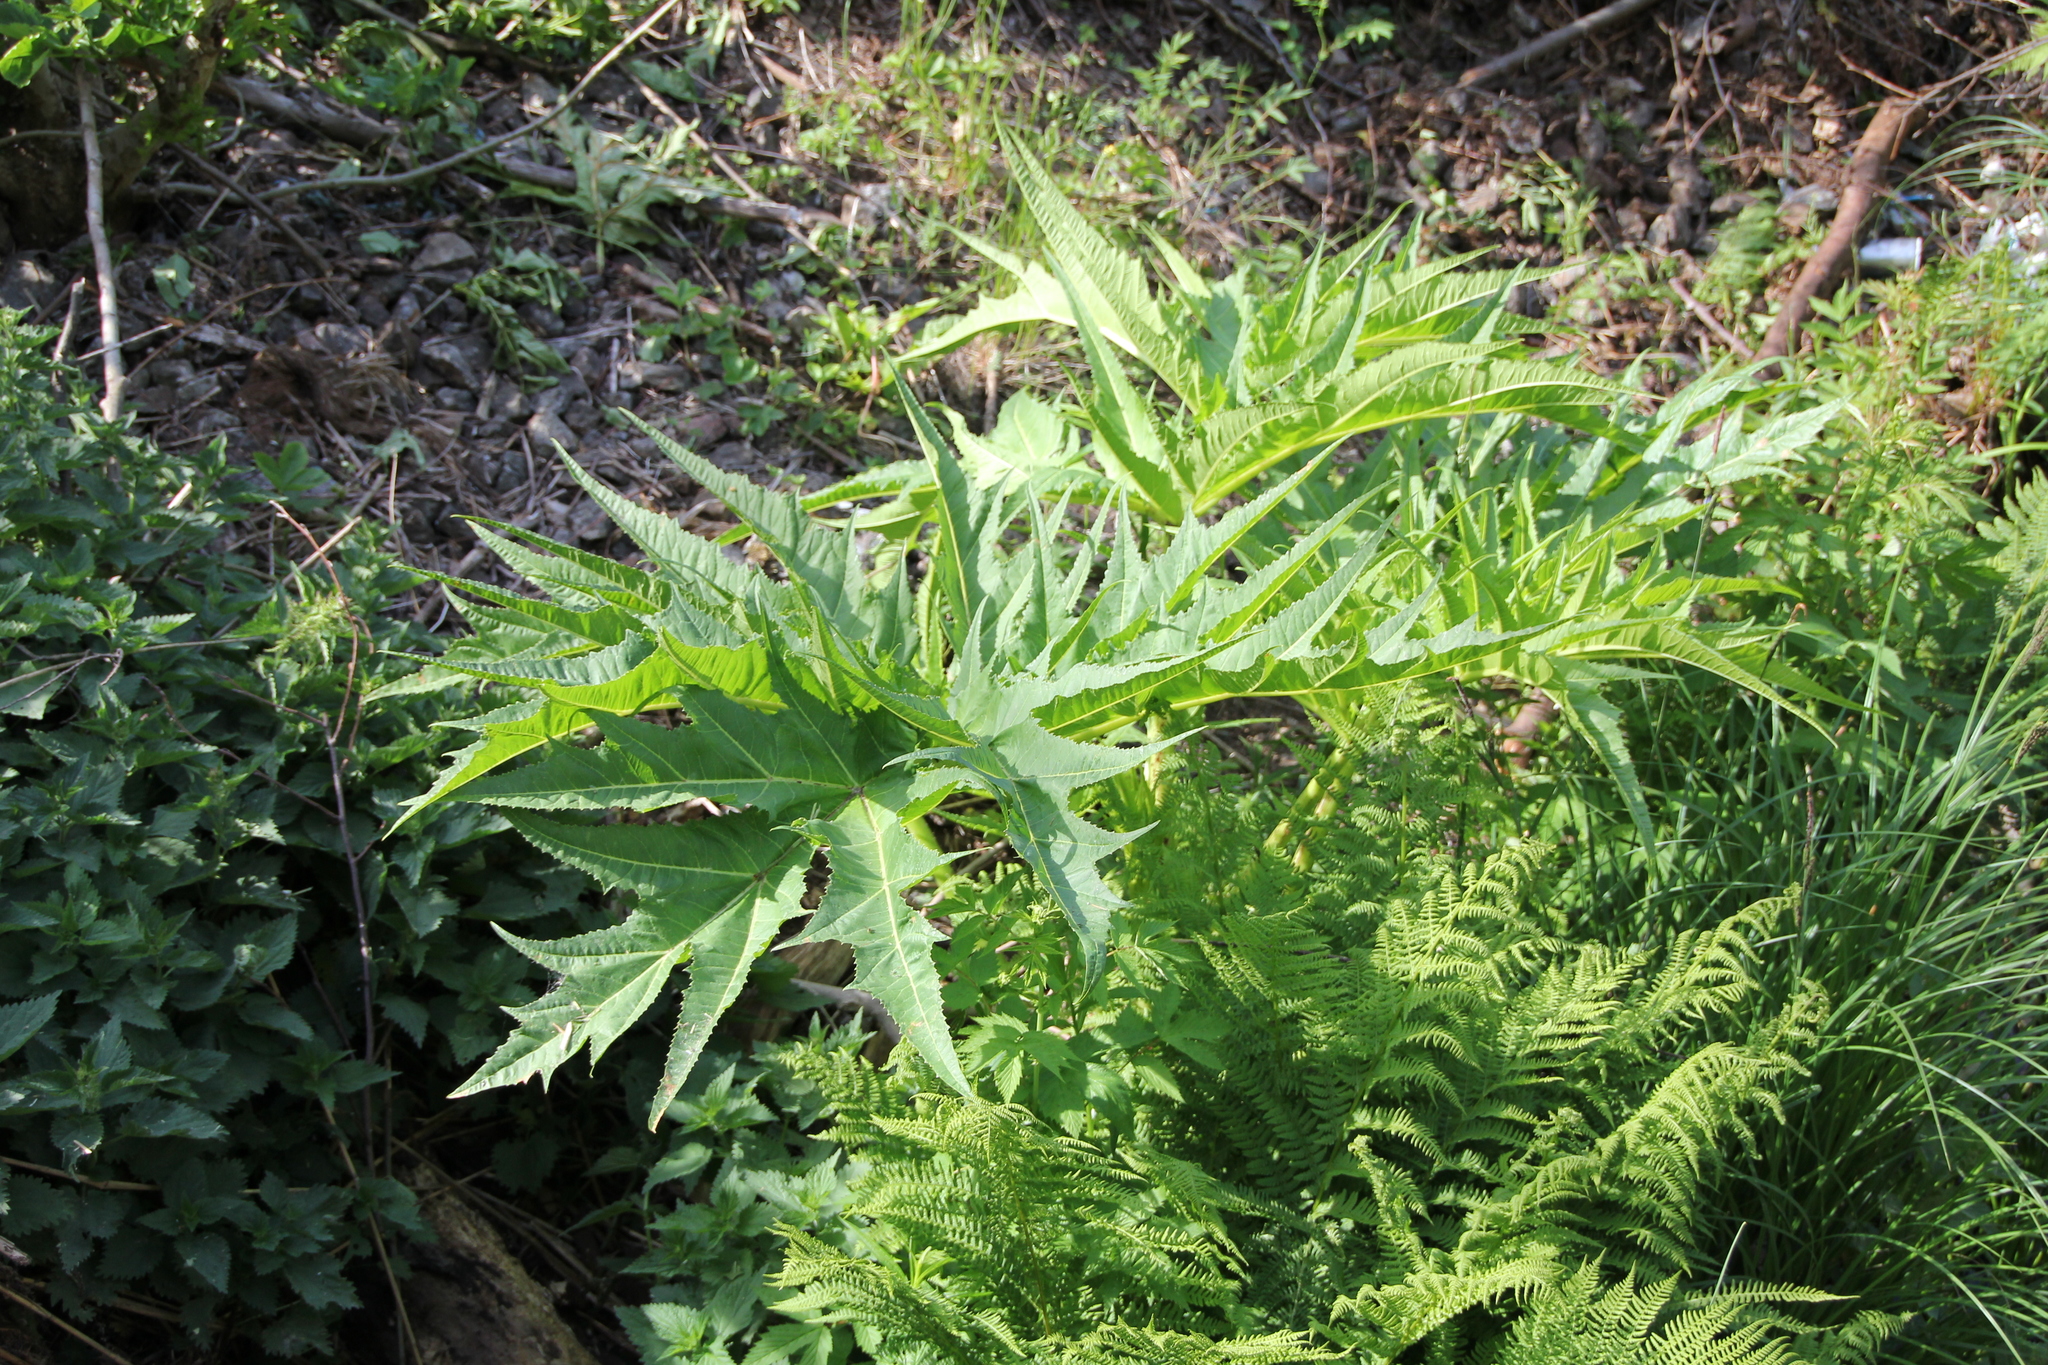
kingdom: Plantae
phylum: Tracheophyta
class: Magnoliopsida
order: Apiales
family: Apiaceae
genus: Heracleum
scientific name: Heracleum mantegazzianum
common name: Giant hogweed
